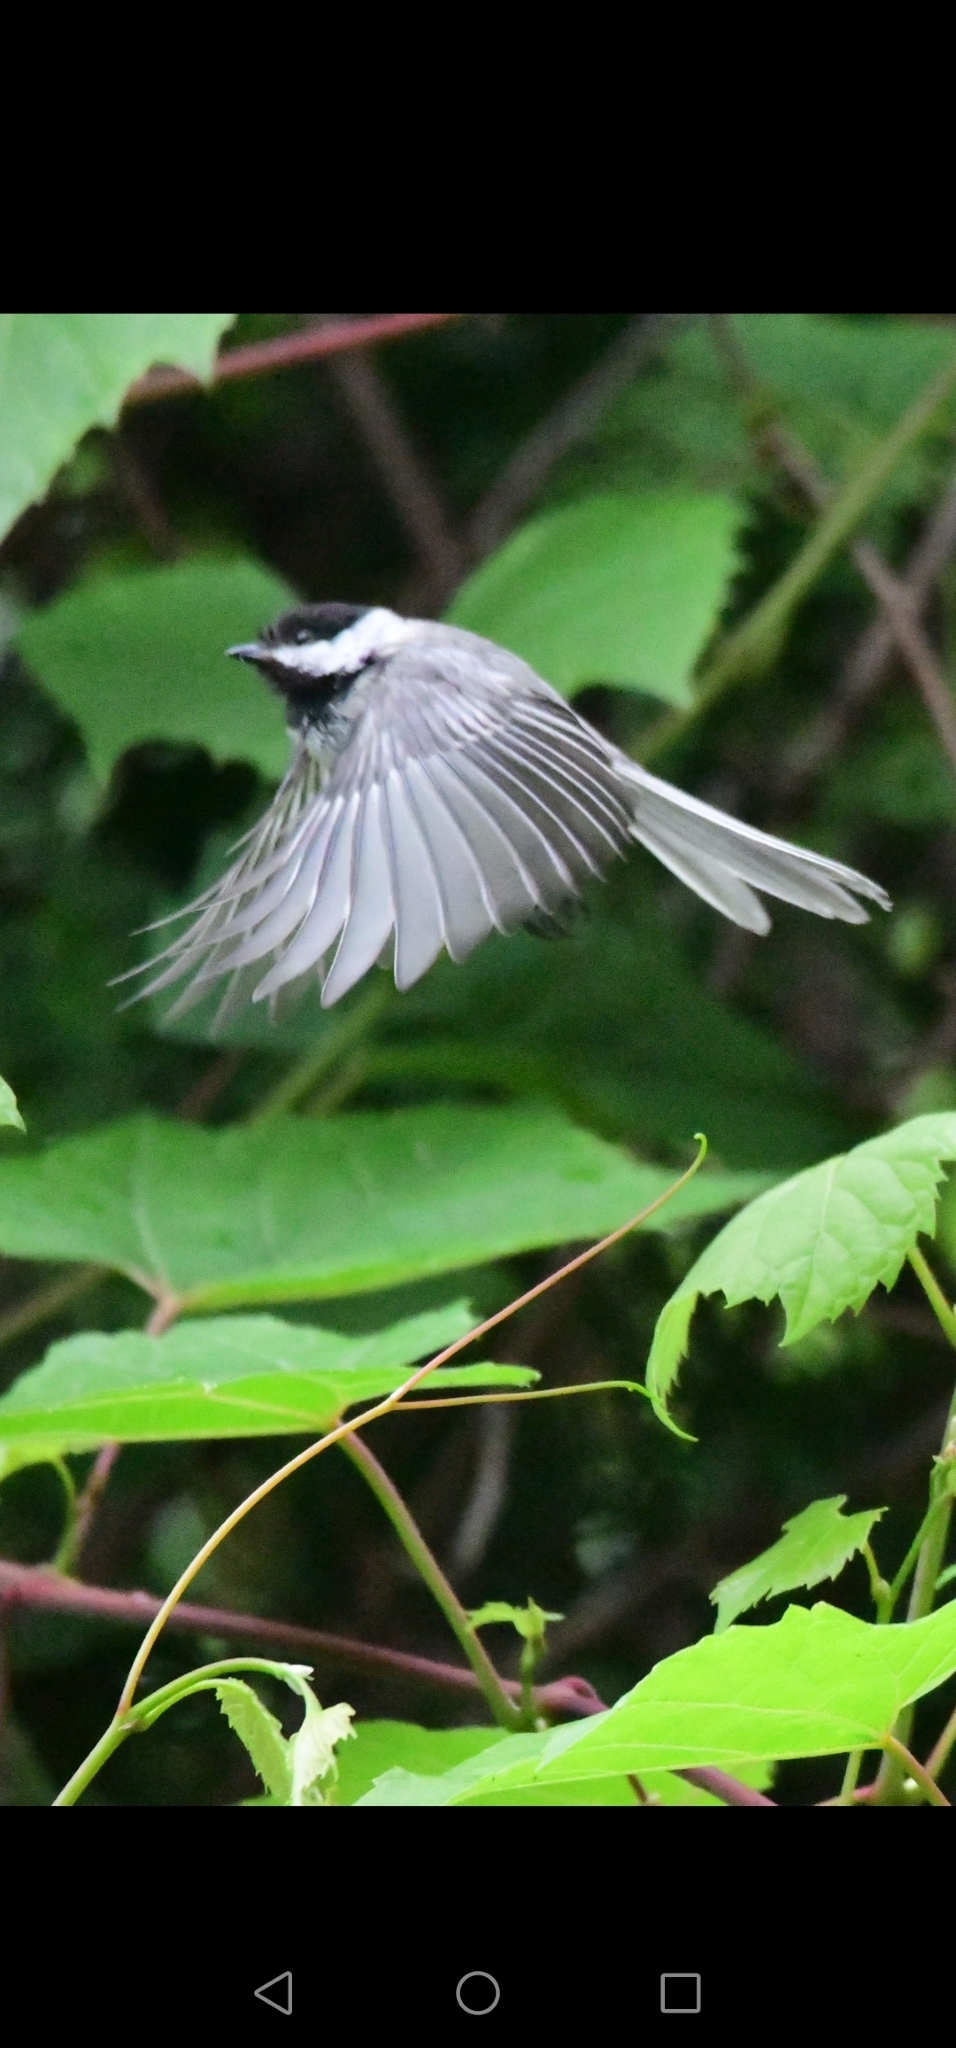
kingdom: Animalia
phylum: Chordata
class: Aves
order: Passeriformes
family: Paridae
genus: Poecile
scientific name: Poecile atricapillus
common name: Black-capped chickadee
